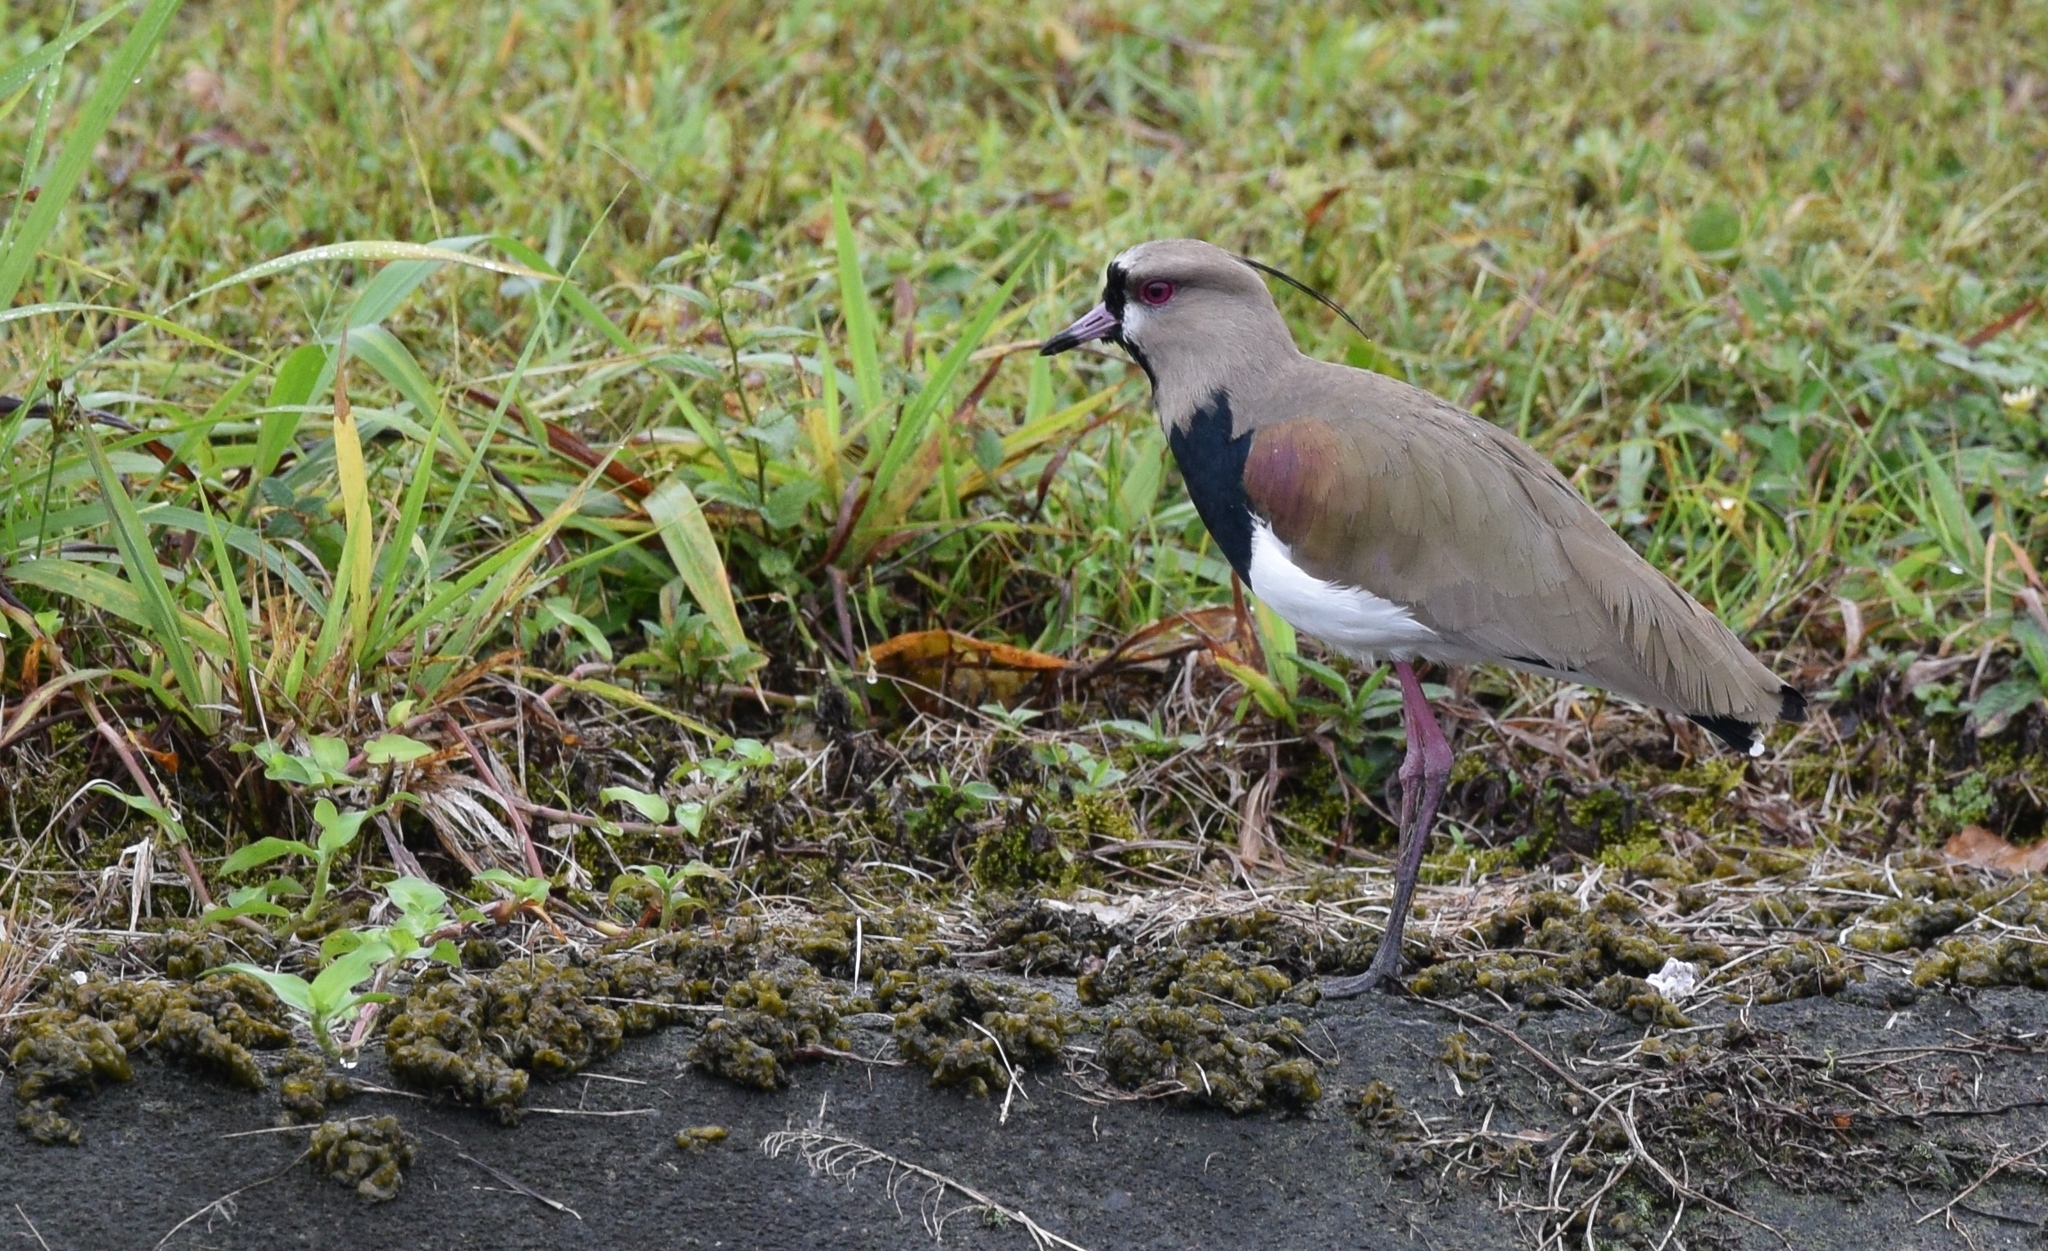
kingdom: Animalia
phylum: Chordata
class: Aves
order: Charadriiformes
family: Charadriidae
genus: Vanellus
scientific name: Vanellus chilensis
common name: Southern lapwing
